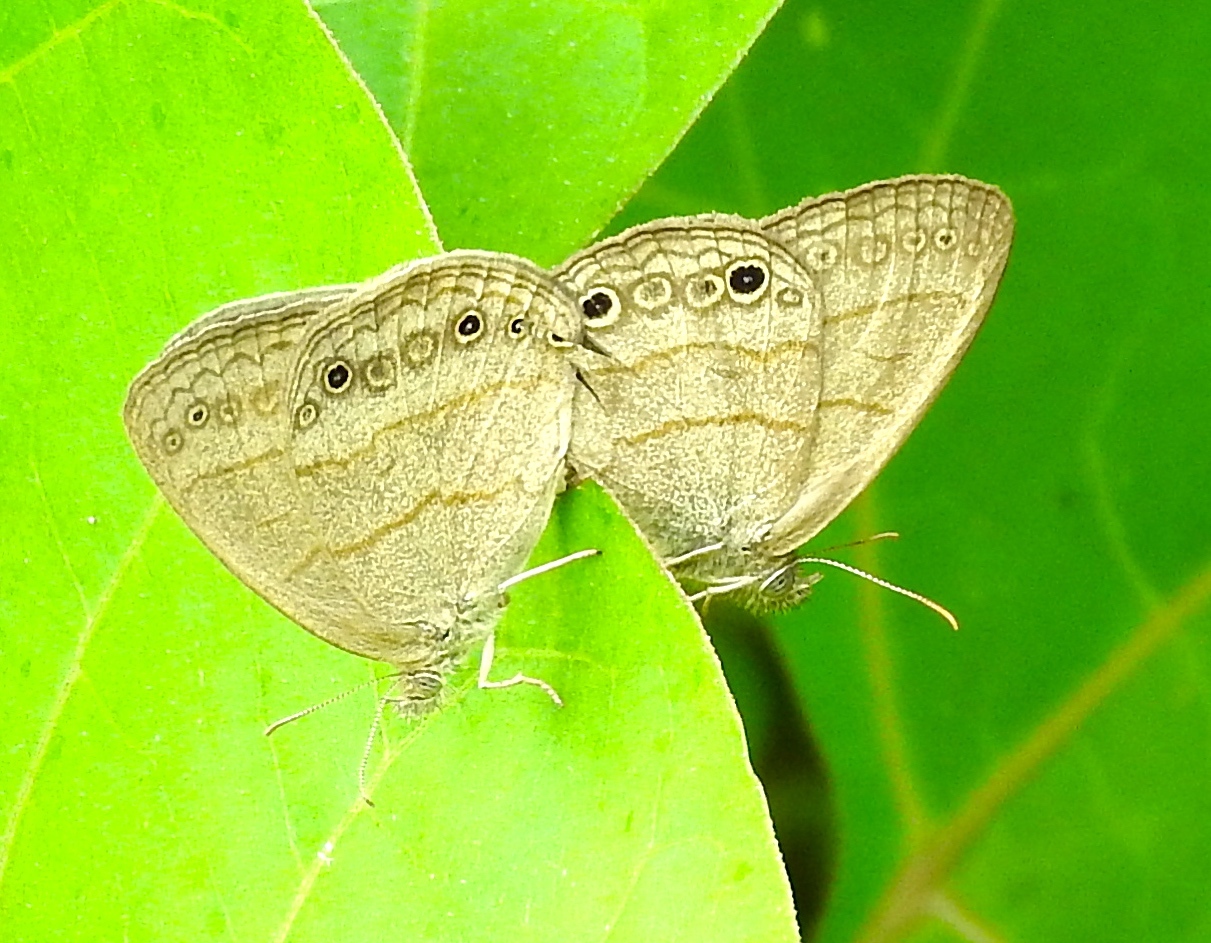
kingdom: Animalia
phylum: Arthropoda
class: Insecta
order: Lepidoptera
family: Nymphalidae
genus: Hermeuptychia
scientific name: Hermeuptychia hermes
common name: Hermes satyr
